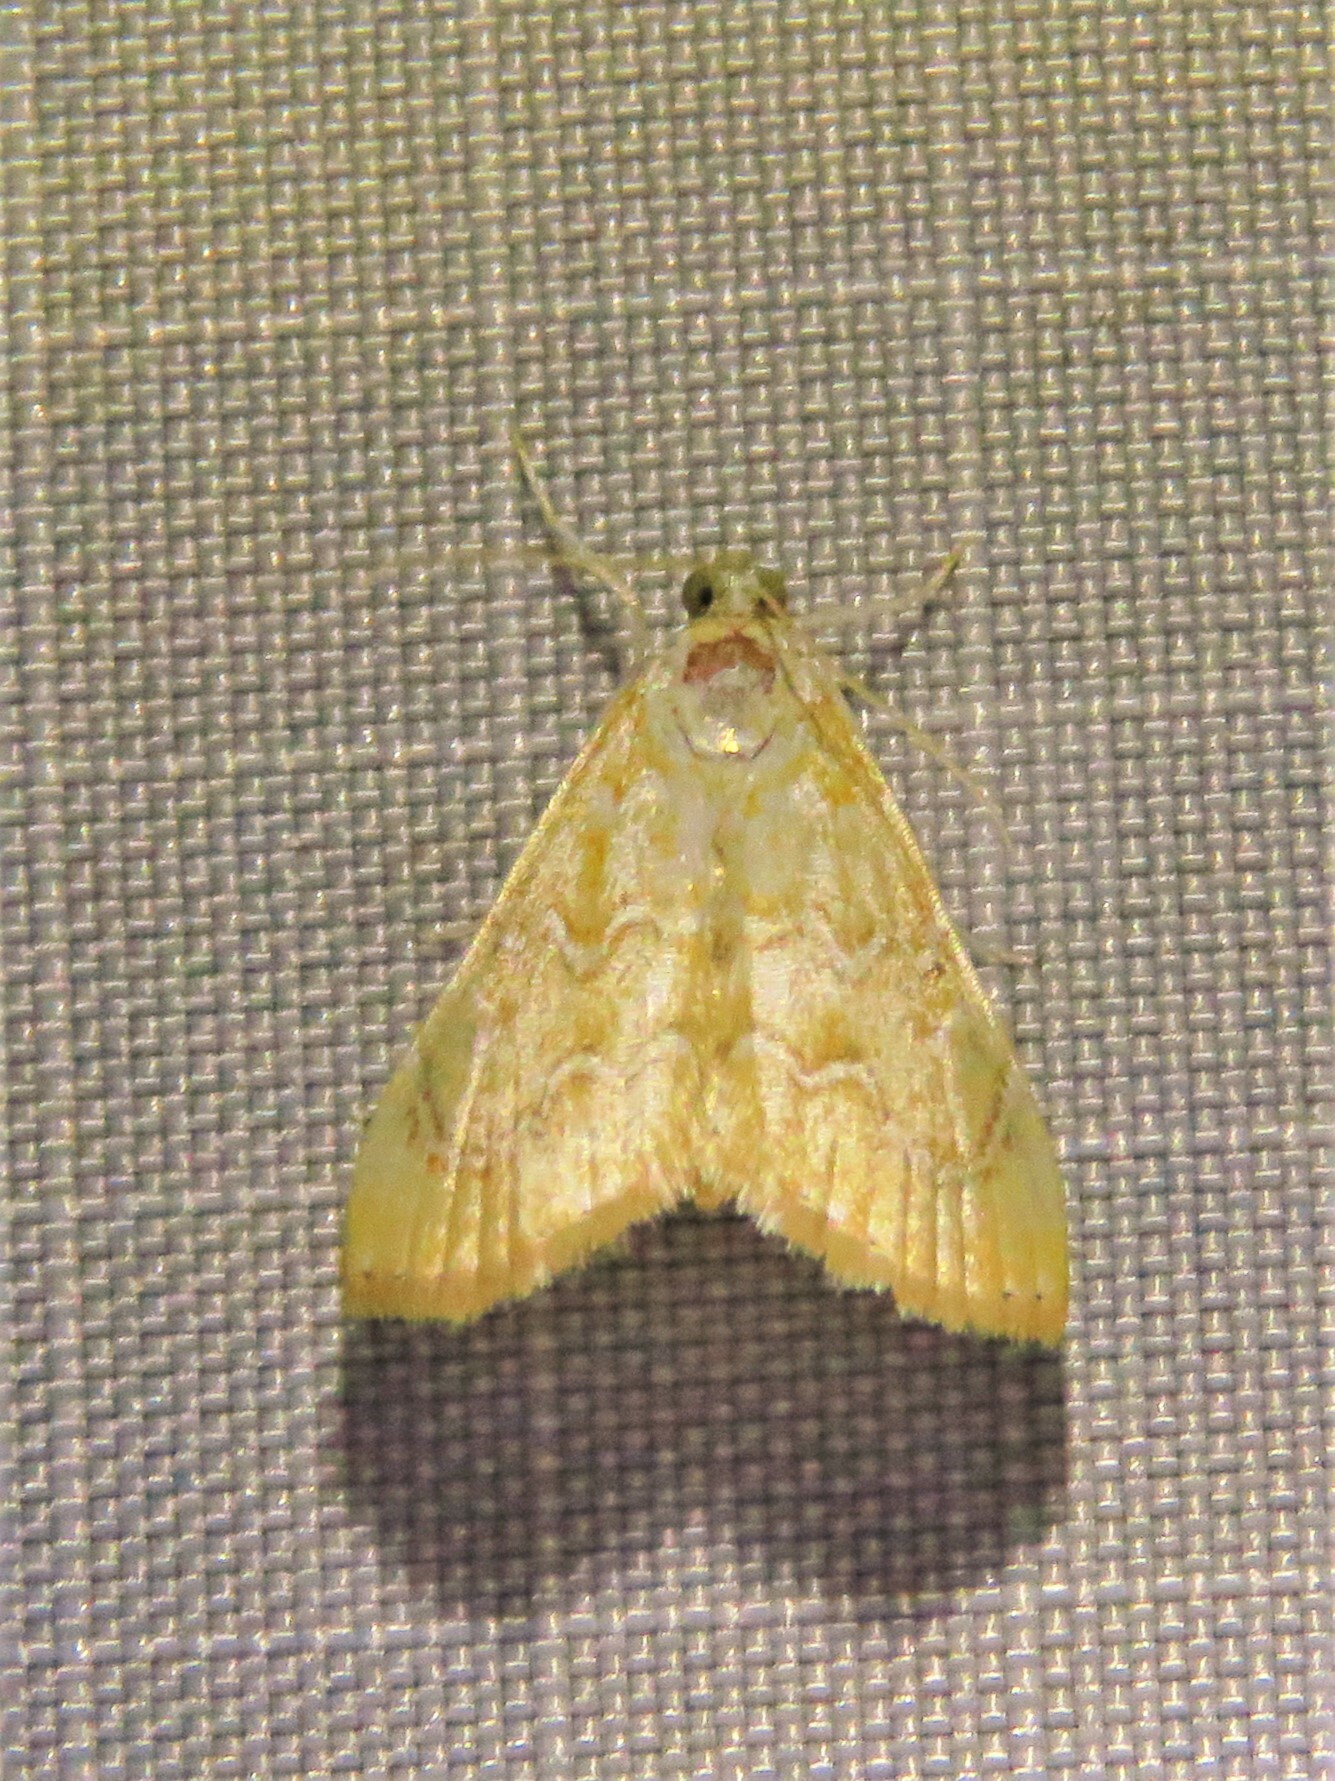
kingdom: Animalia
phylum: Arthropoda
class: Insecta
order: Lepidoptera
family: Crambidae
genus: Glaphyria
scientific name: Glaphyria sesquistrialis
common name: White-roped glaphyria
